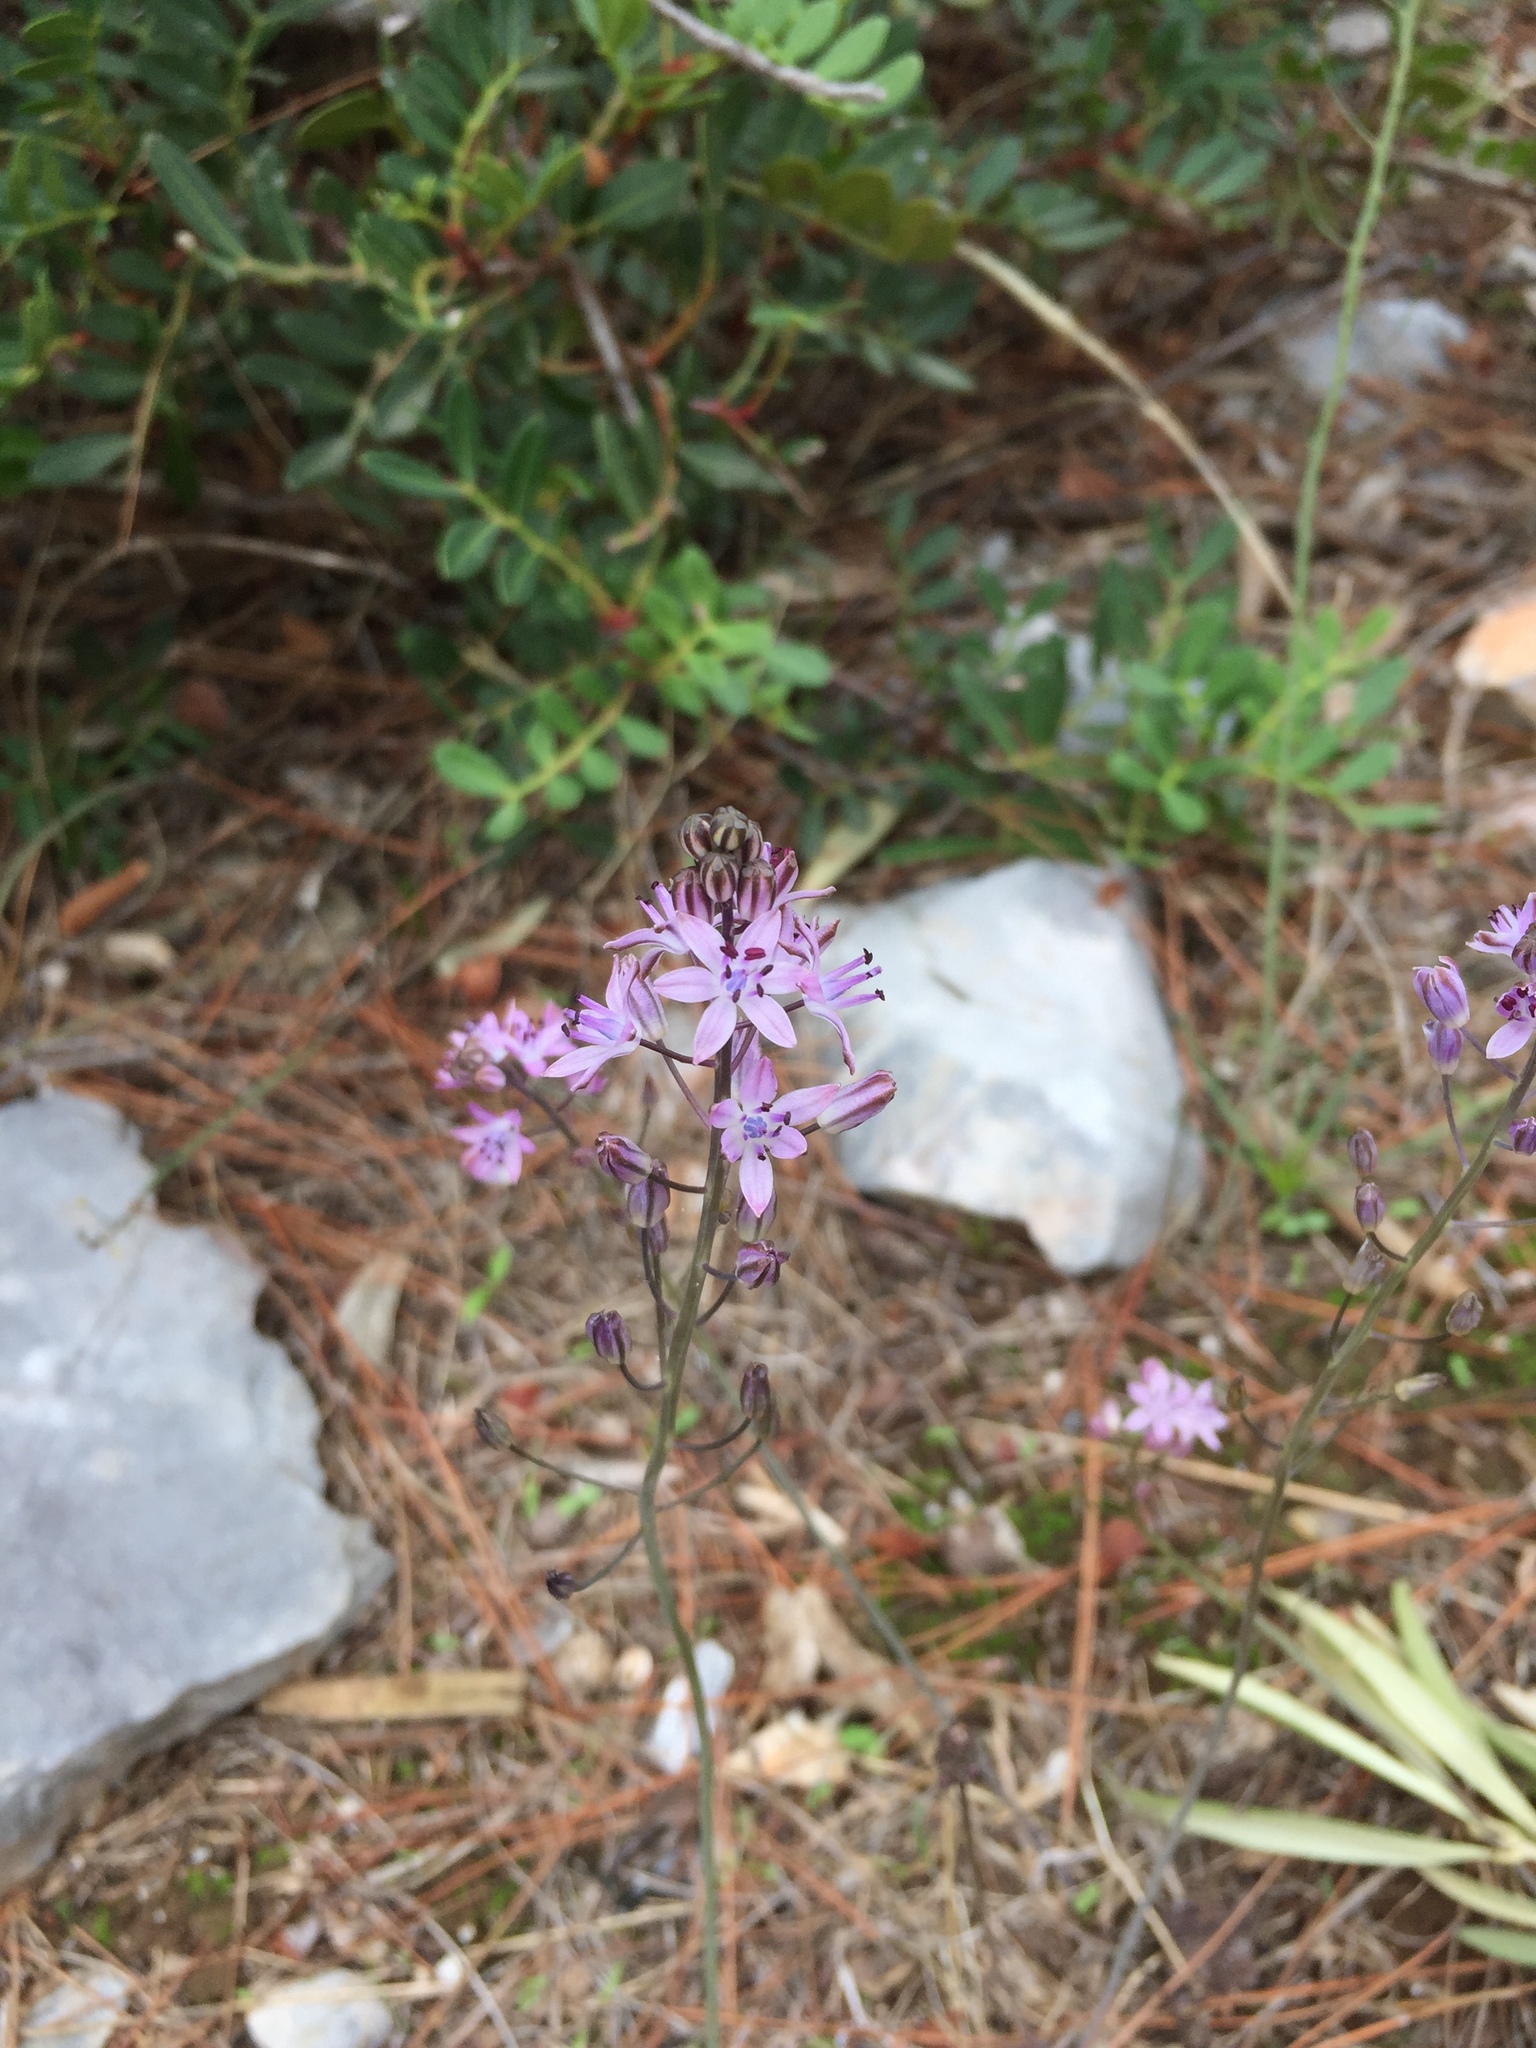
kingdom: Plantae
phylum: Tracheophyta
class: Liliopsida
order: Asparagales
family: Asparagaceae
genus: Prospero
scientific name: Prospero autumnale
